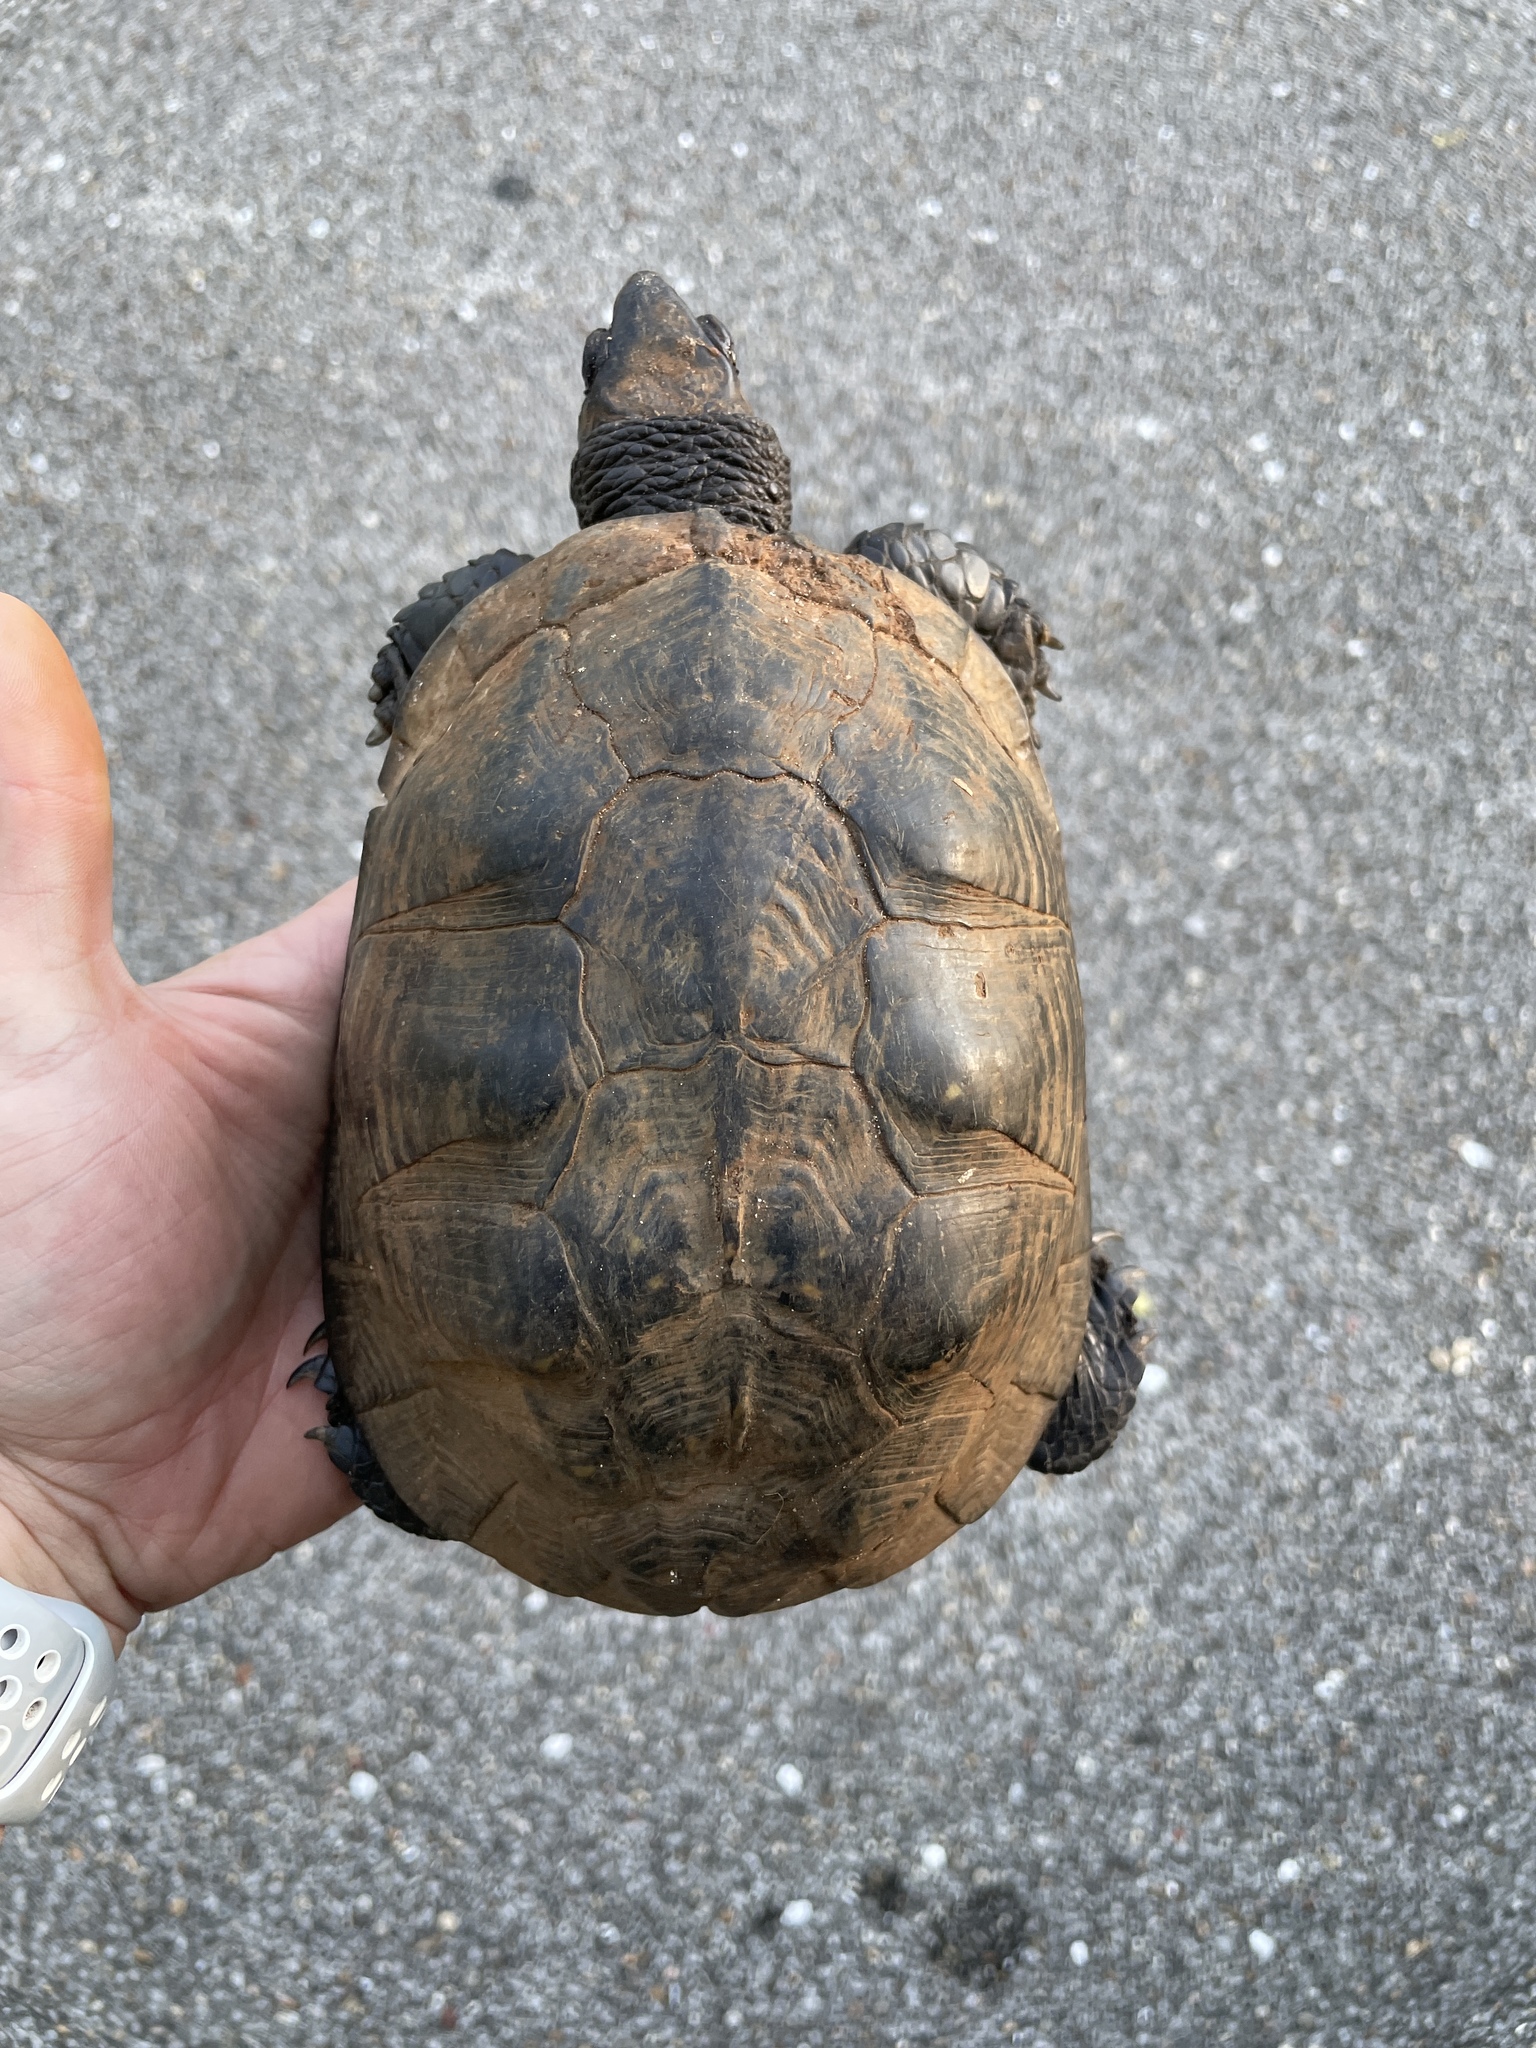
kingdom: Animalia
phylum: Chordata
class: Testudines
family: Emydidae
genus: Terrapene
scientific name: Terrapene carolina
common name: Common box turtle
